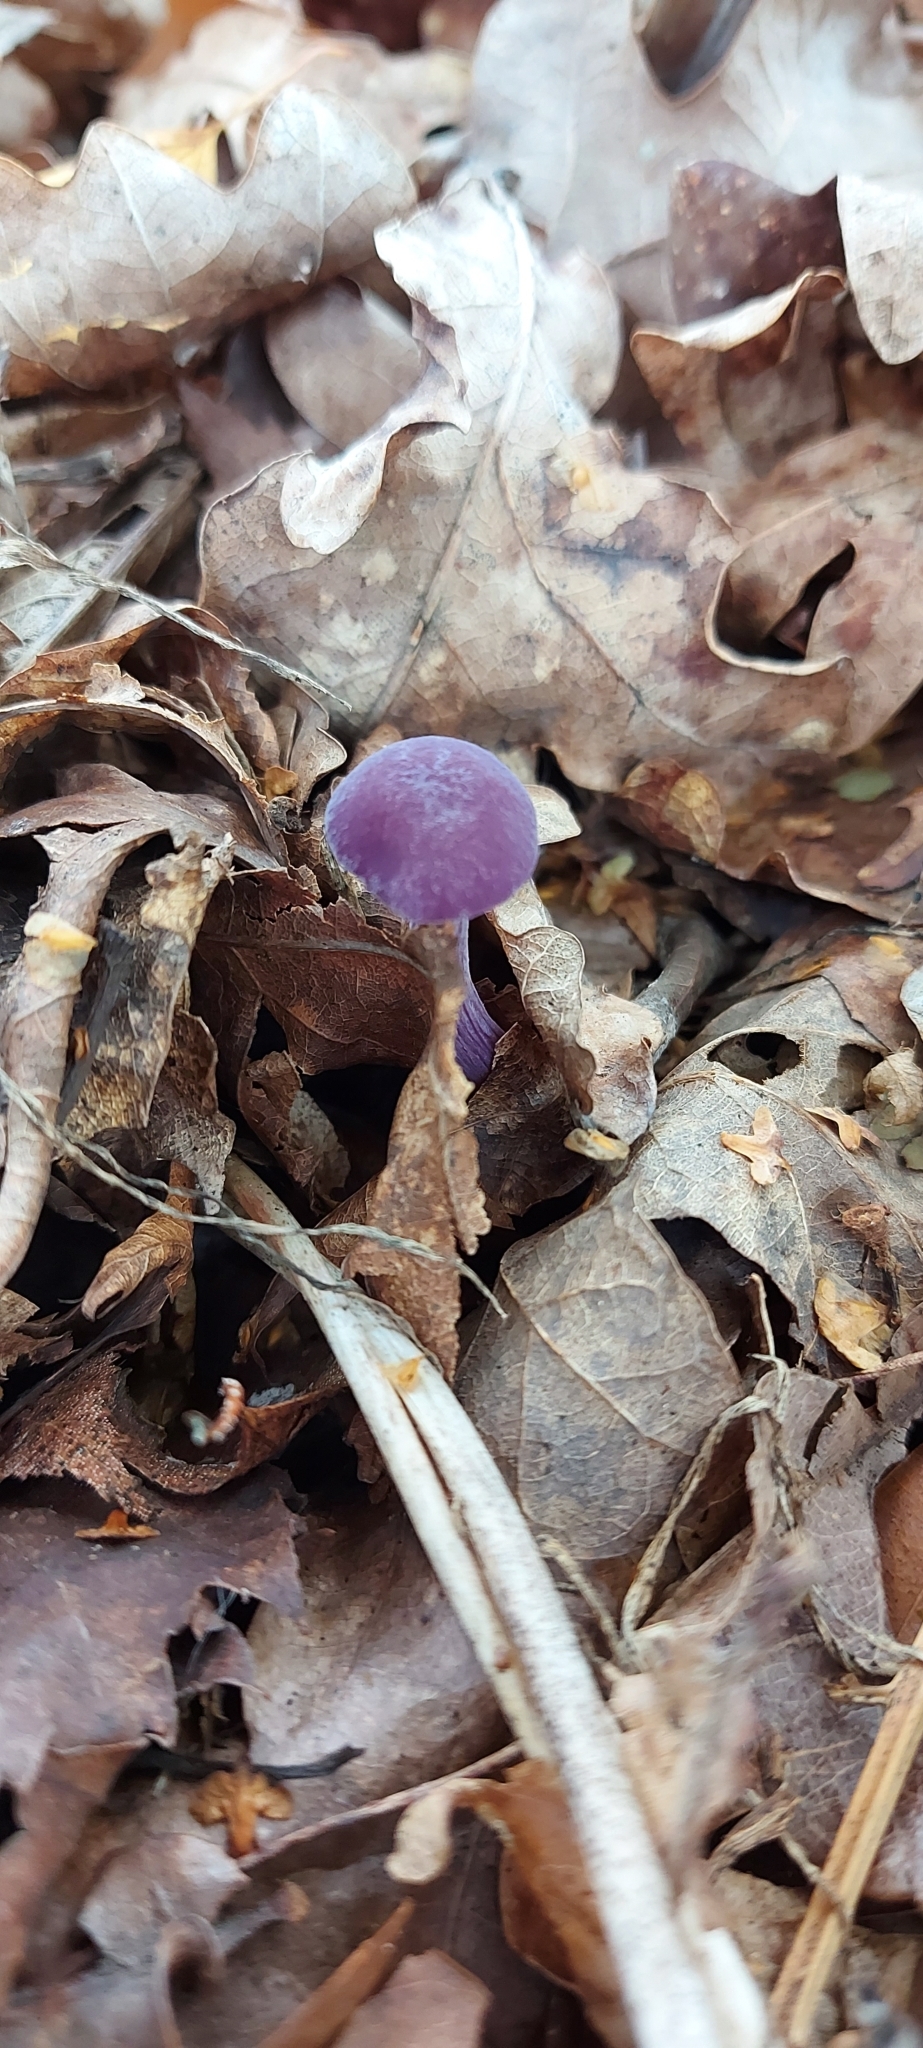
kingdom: Fungi
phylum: Basidiomycota
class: Agaricomycetes
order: Agaricales
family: Hydnangiaceae
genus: Laccaria
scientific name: Laccaria amethystina
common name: Amethyst deceiver
